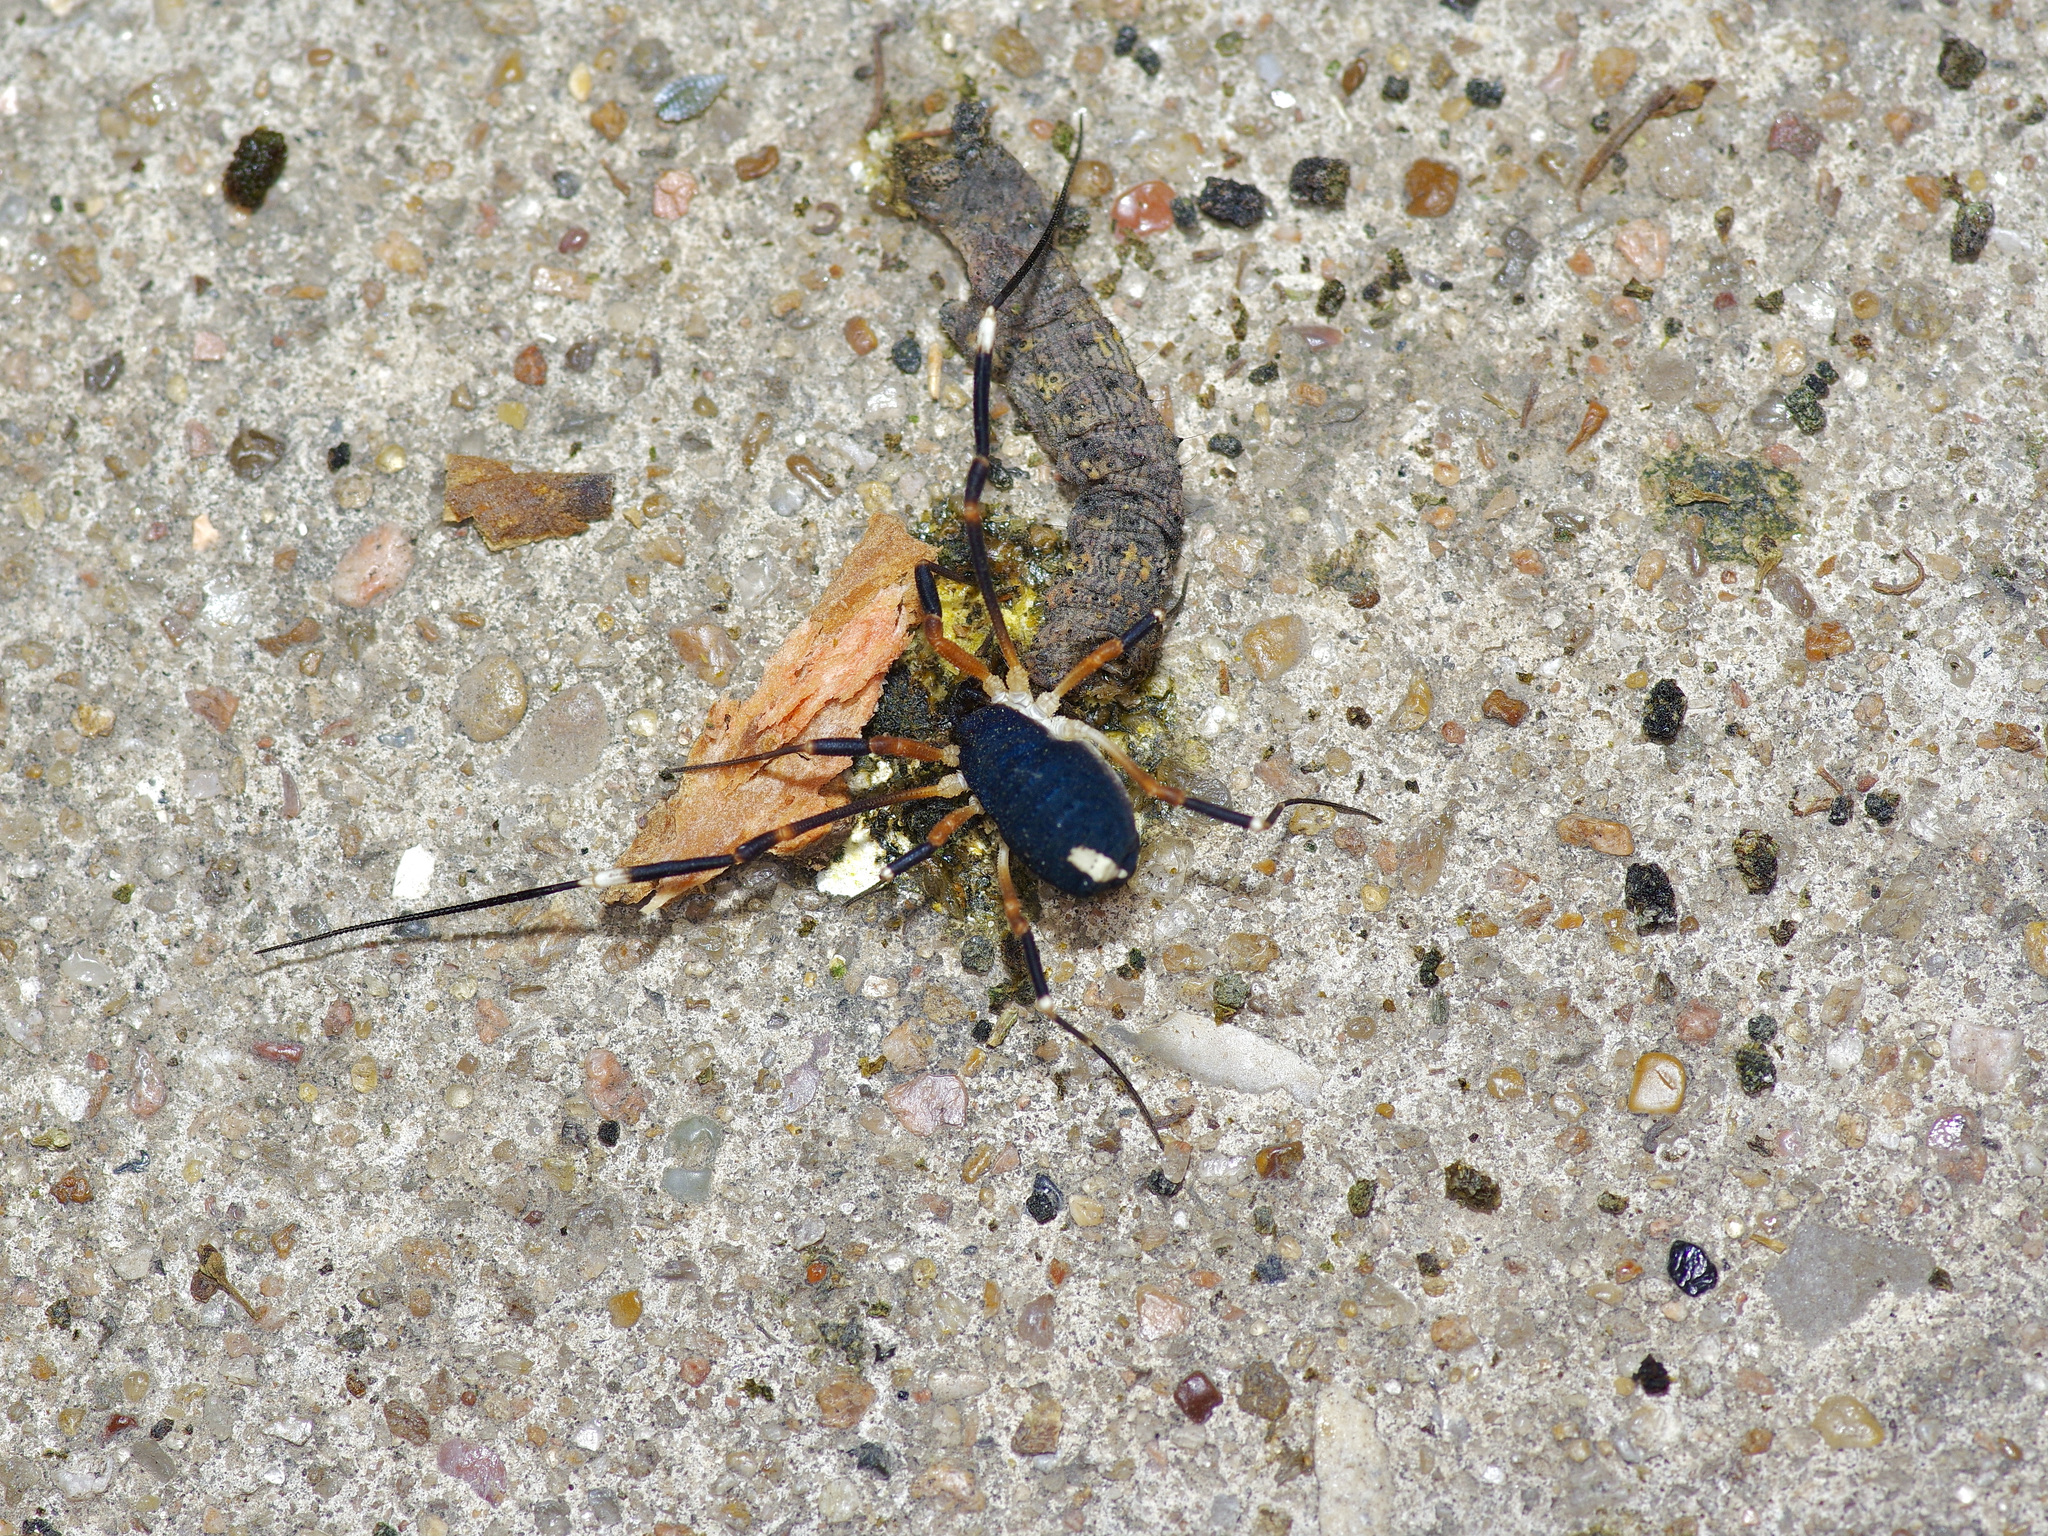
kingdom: Animalia
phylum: Arthropoda
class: Arachnida
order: Opiliones
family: Globipedidae
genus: Dalquestia
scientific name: Dalquestia formosa
